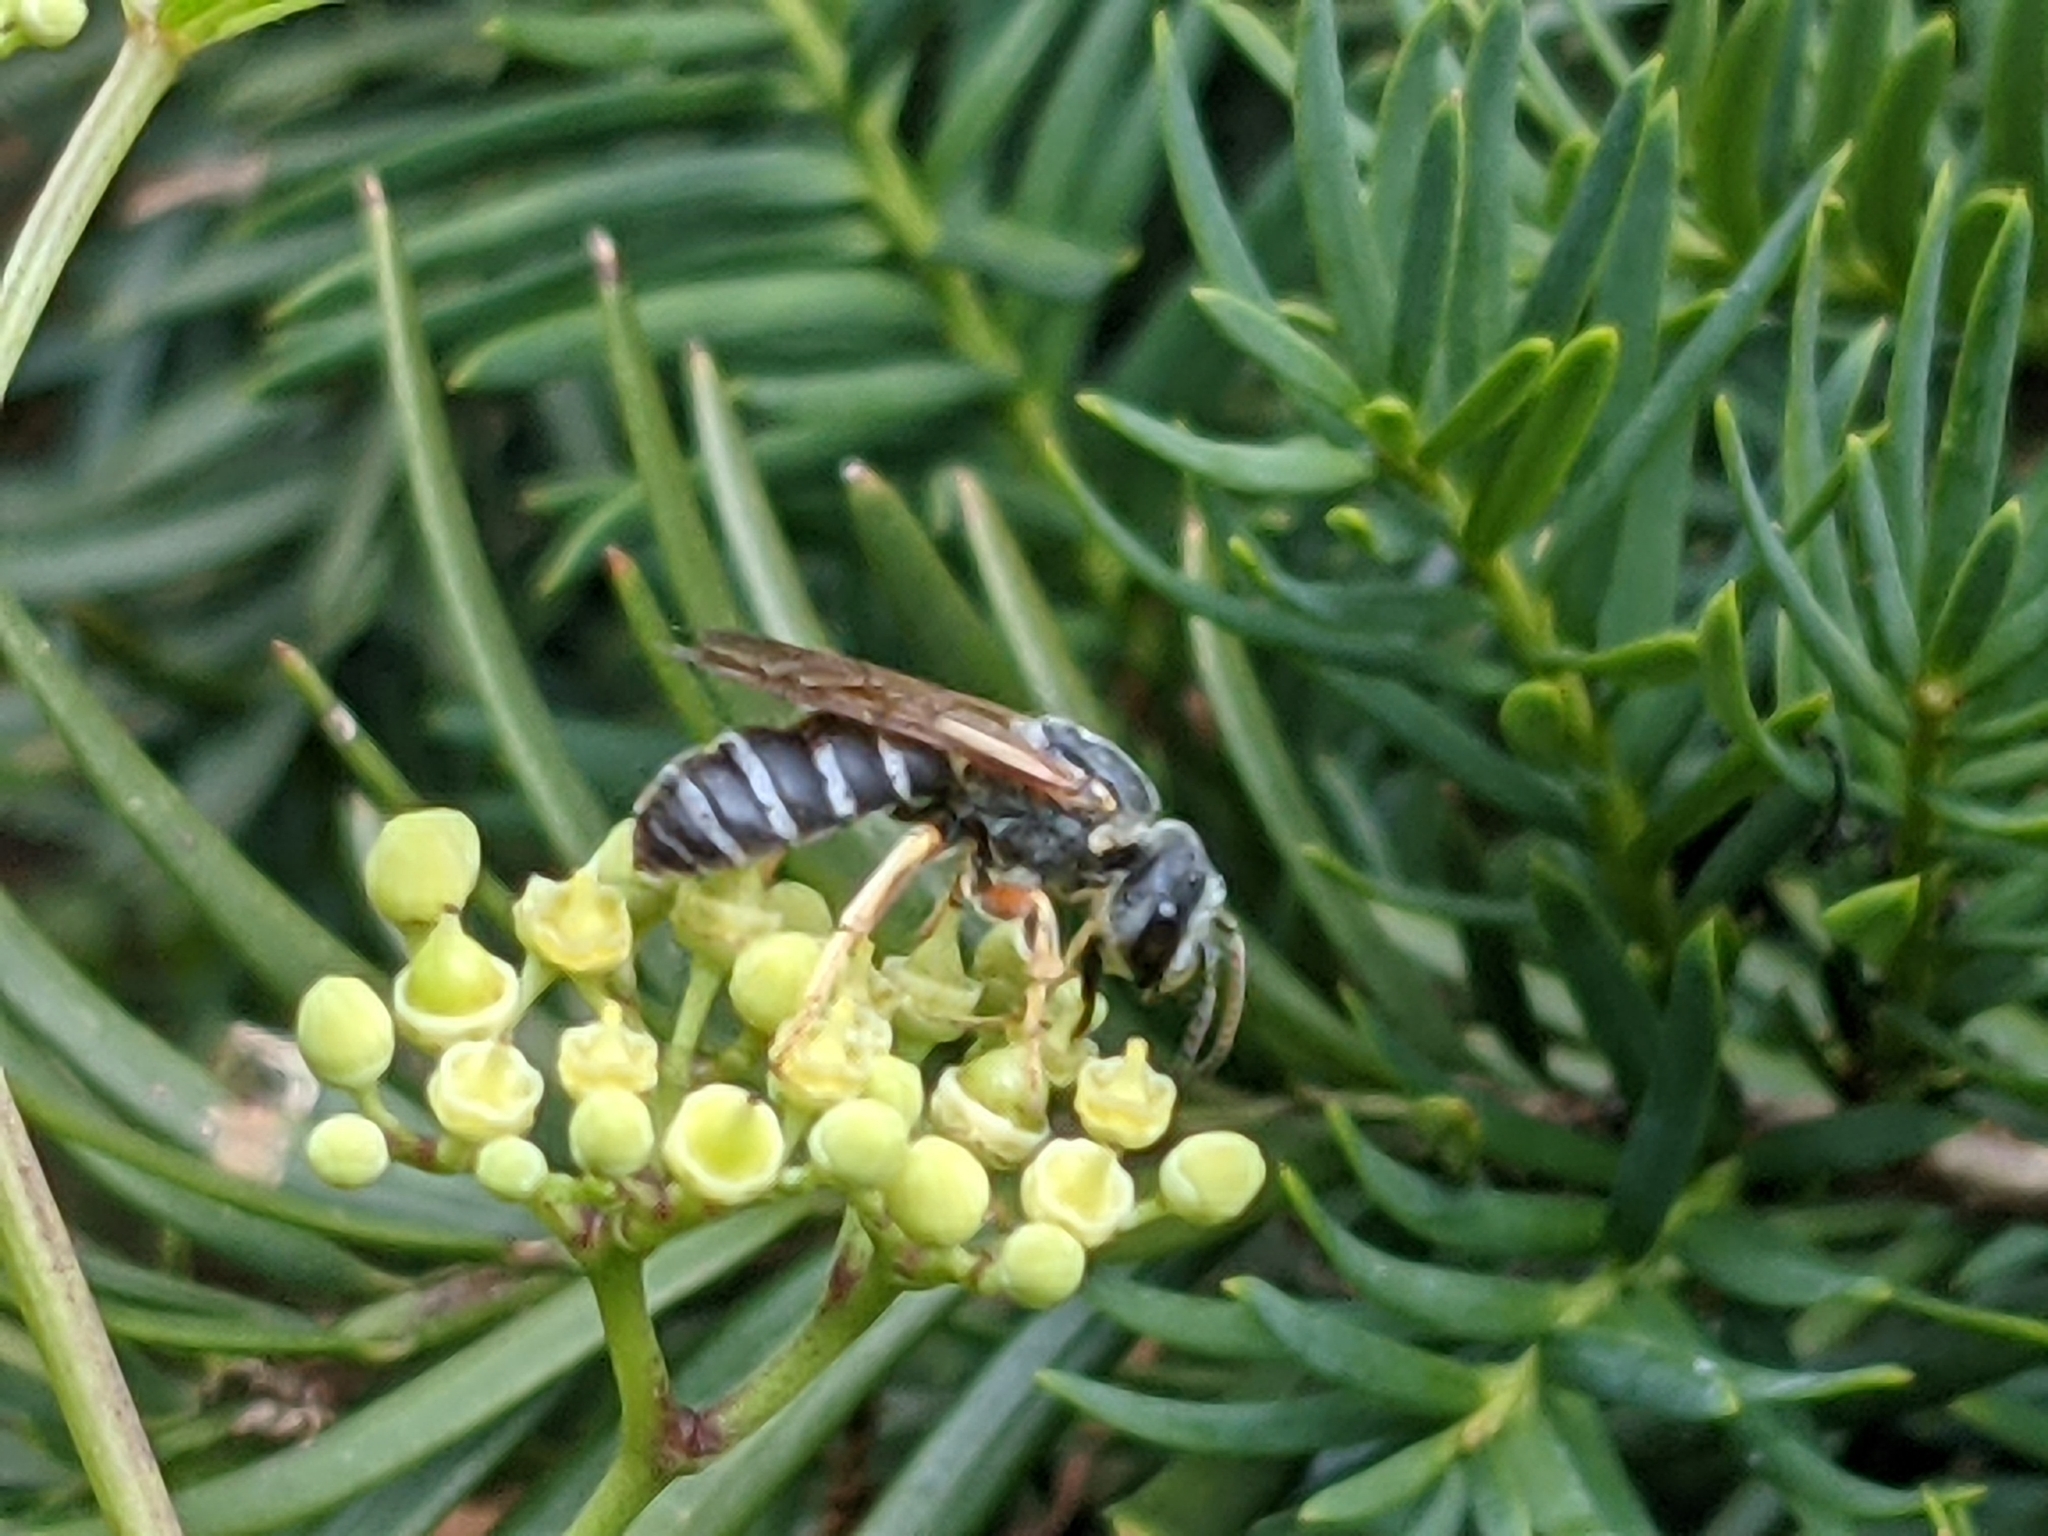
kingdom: Animalia
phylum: Arthropoda
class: Insecta
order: Hymenoptera
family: Halictidae
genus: Halictus
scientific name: Halictus parallelus
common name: Parallel-striped sweat bee
